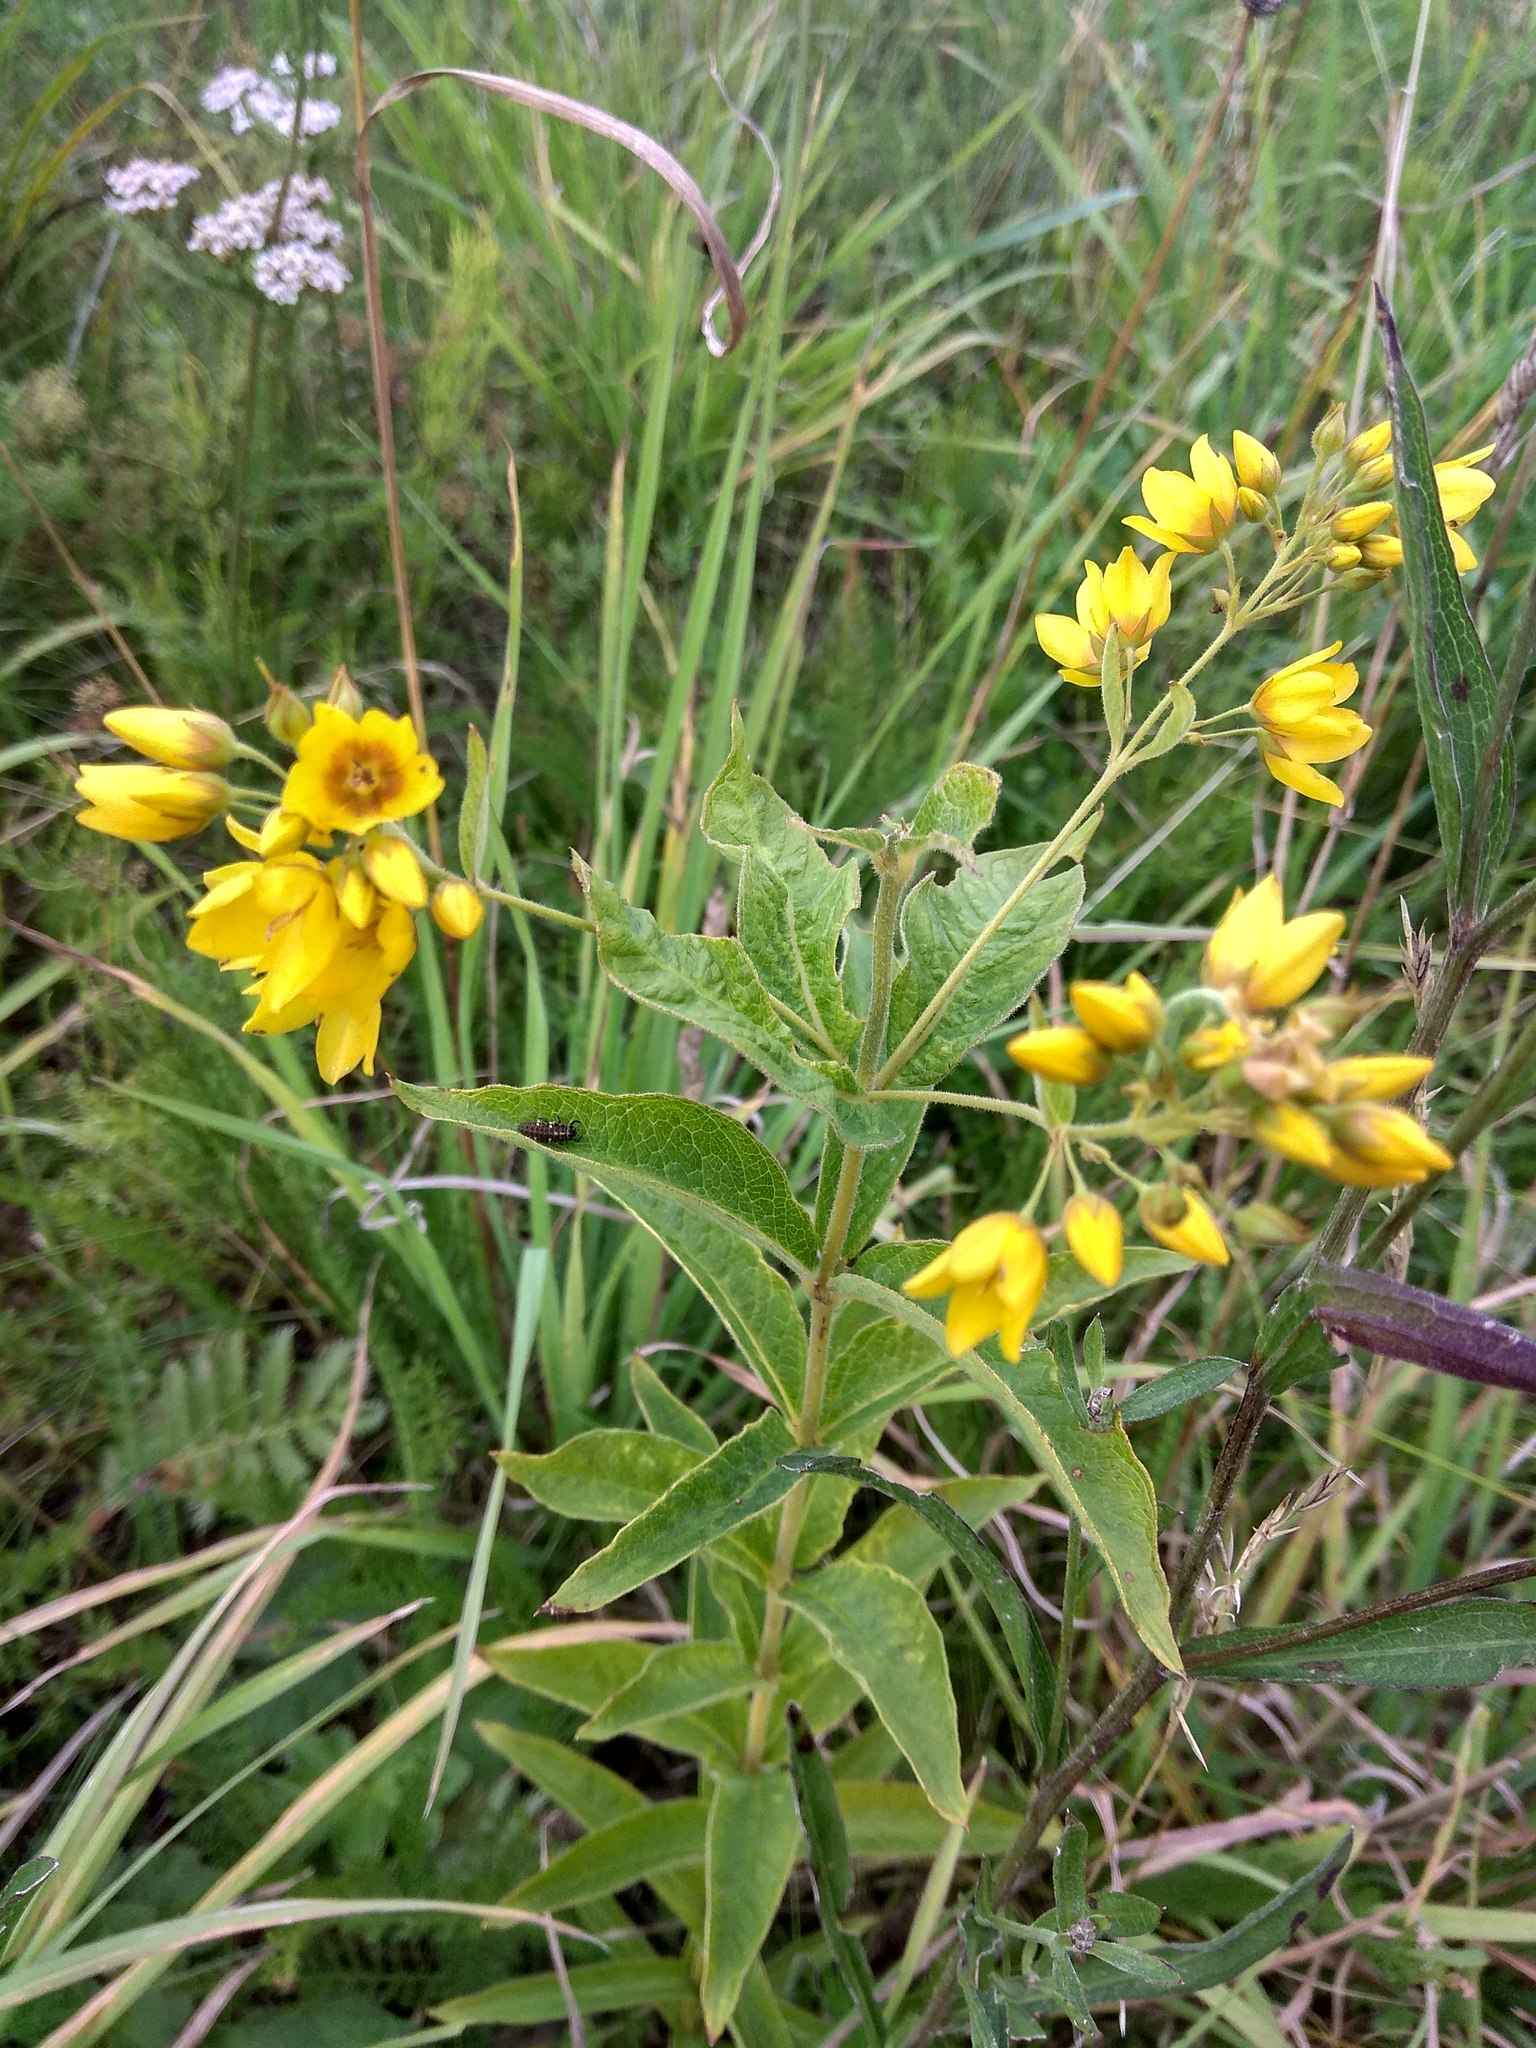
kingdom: Plantae
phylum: Tracheophyta
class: Magnoliopsida
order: Ericales
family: Primulaceae
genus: Lysimachia
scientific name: Lysimachia vulgaris
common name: Yellow loosestrife
